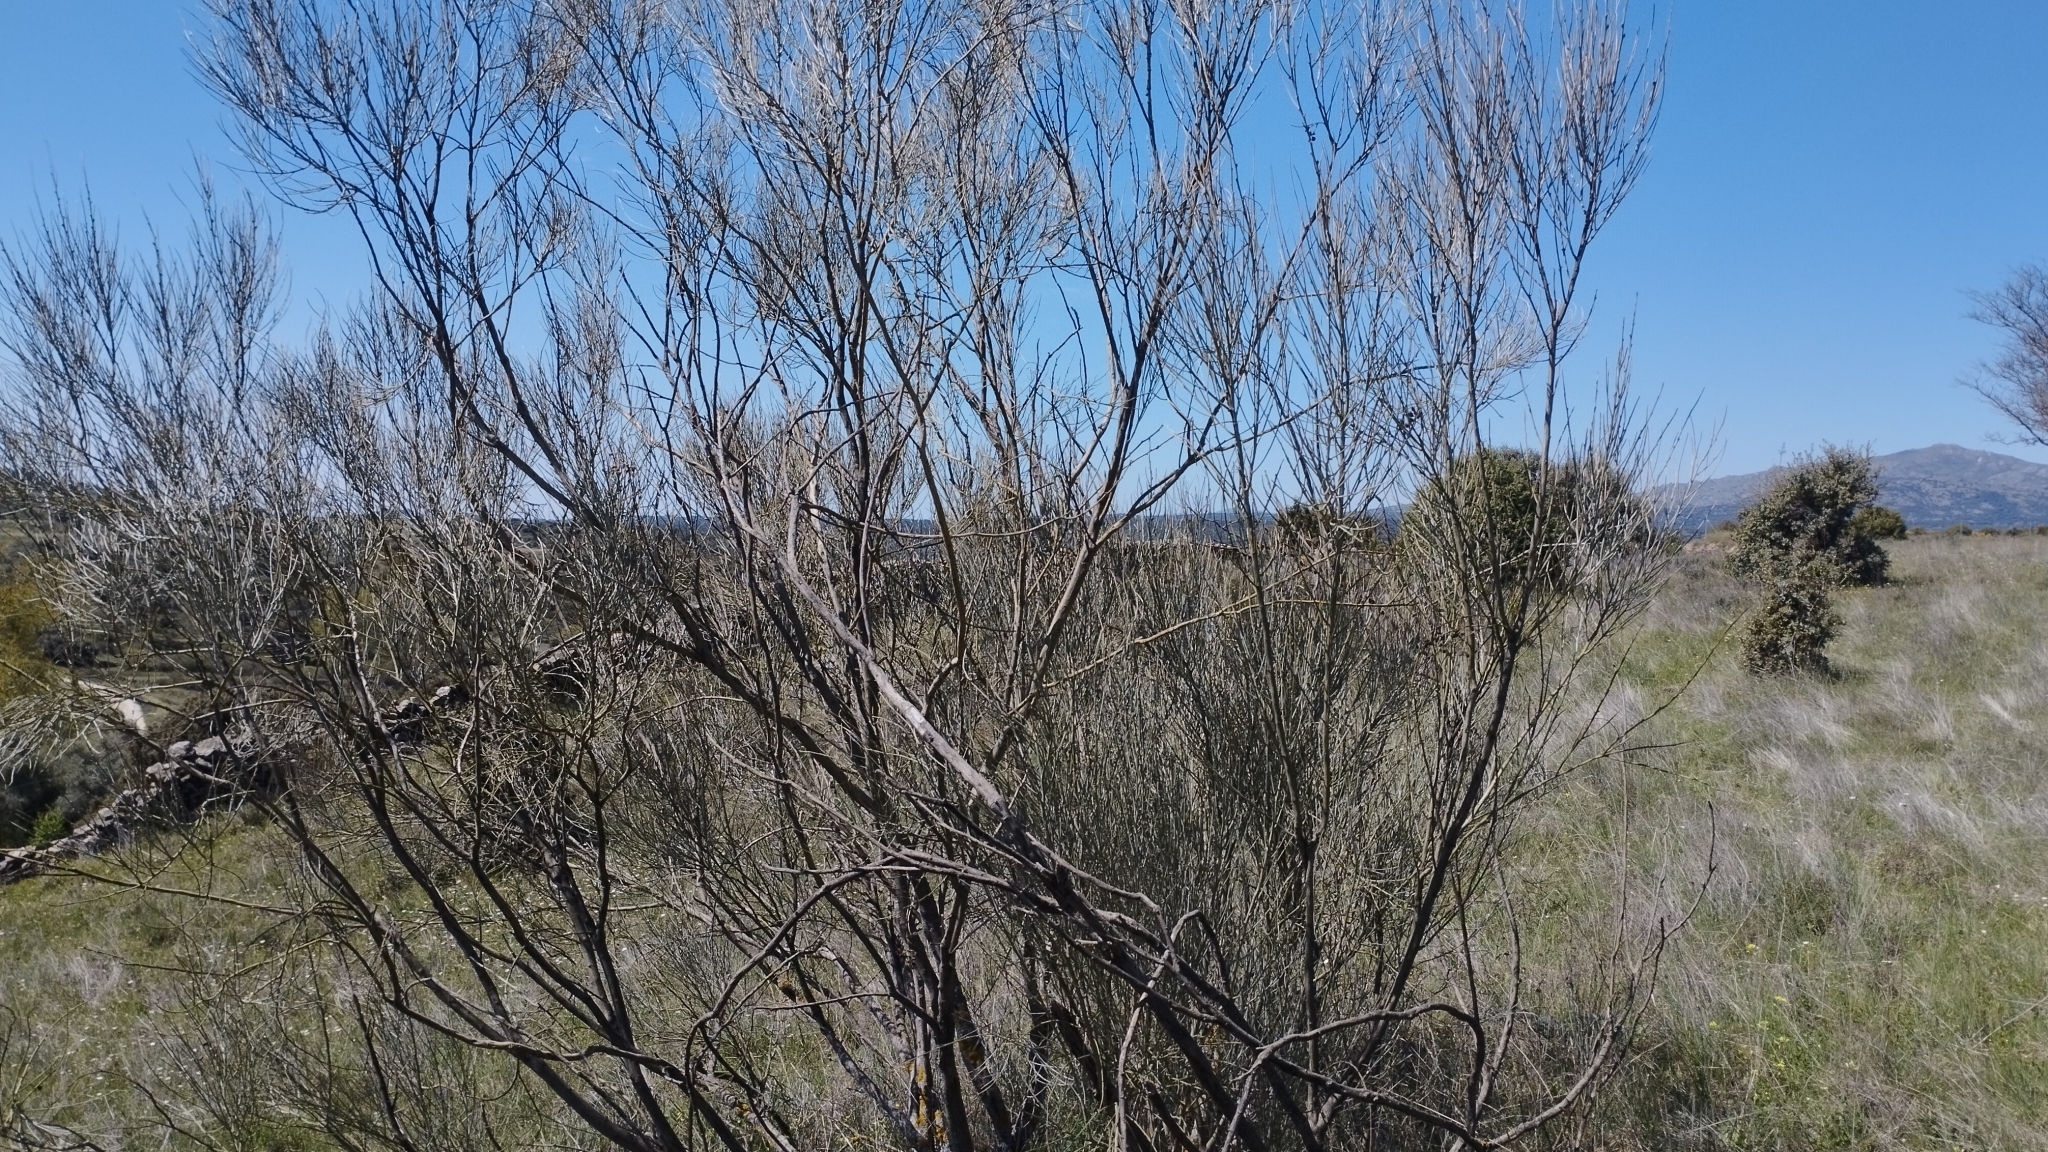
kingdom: Plantae
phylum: Tracheophyta
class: Magnoliopsida
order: Fabales
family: Fabaceae
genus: Retama
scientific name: Retama sphaerocarpa
